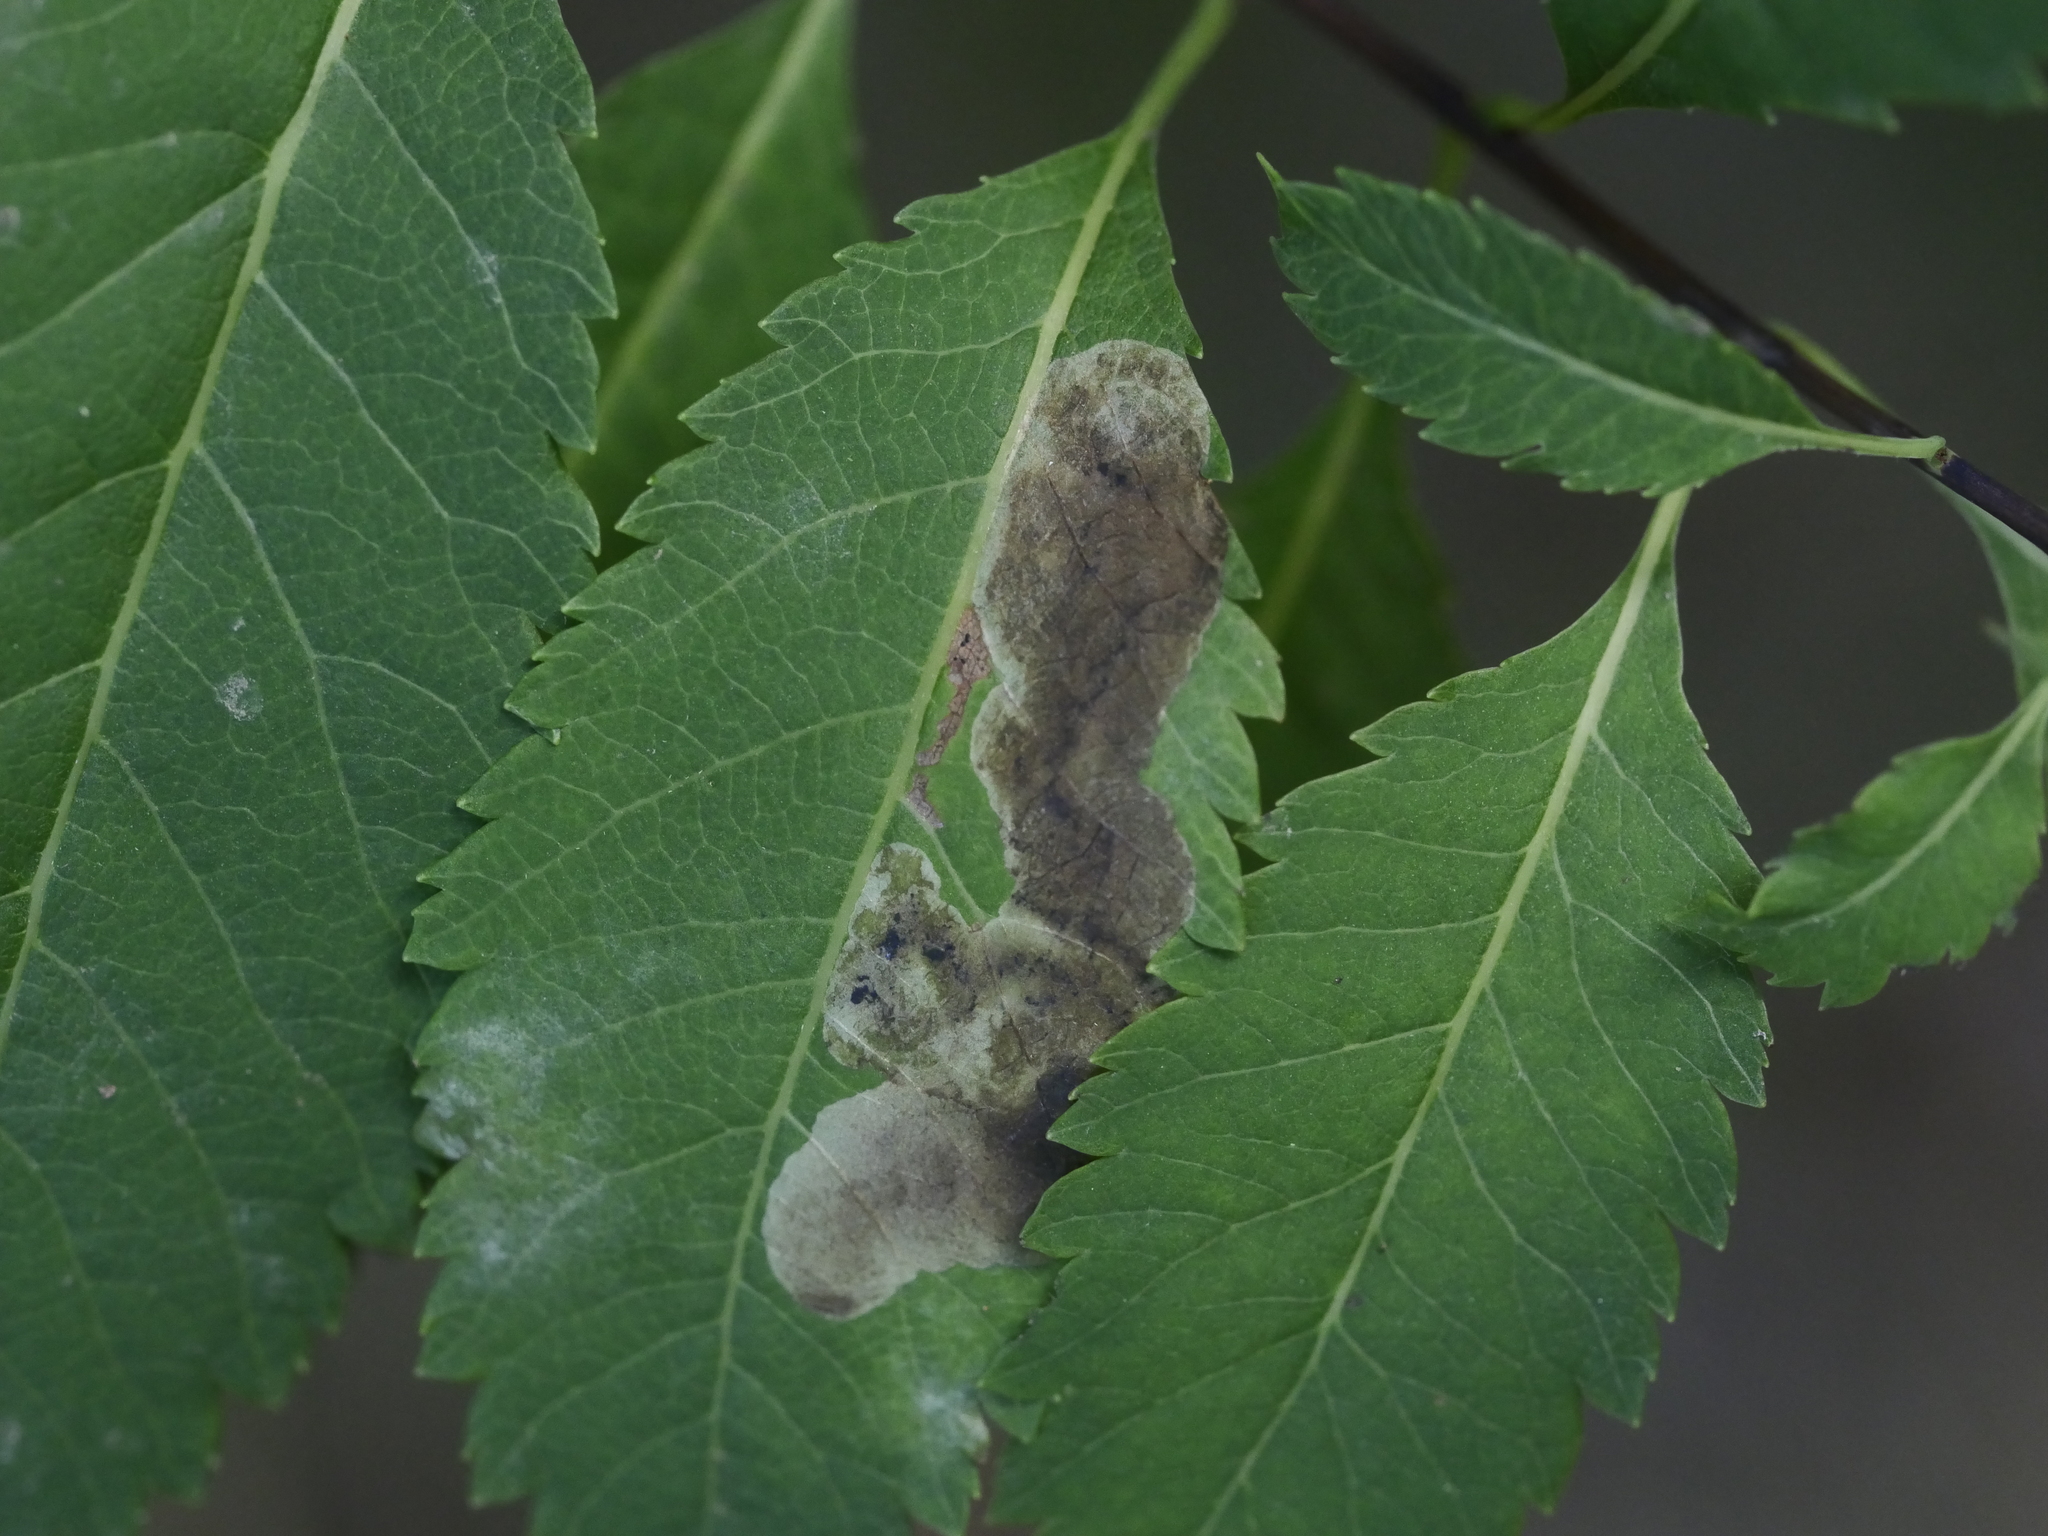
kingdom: Animalia
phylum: Arthropoda
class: Insecta
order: Diptera
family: Agromyzidae
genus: Agromyza
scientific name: Agromyza valdorensis
